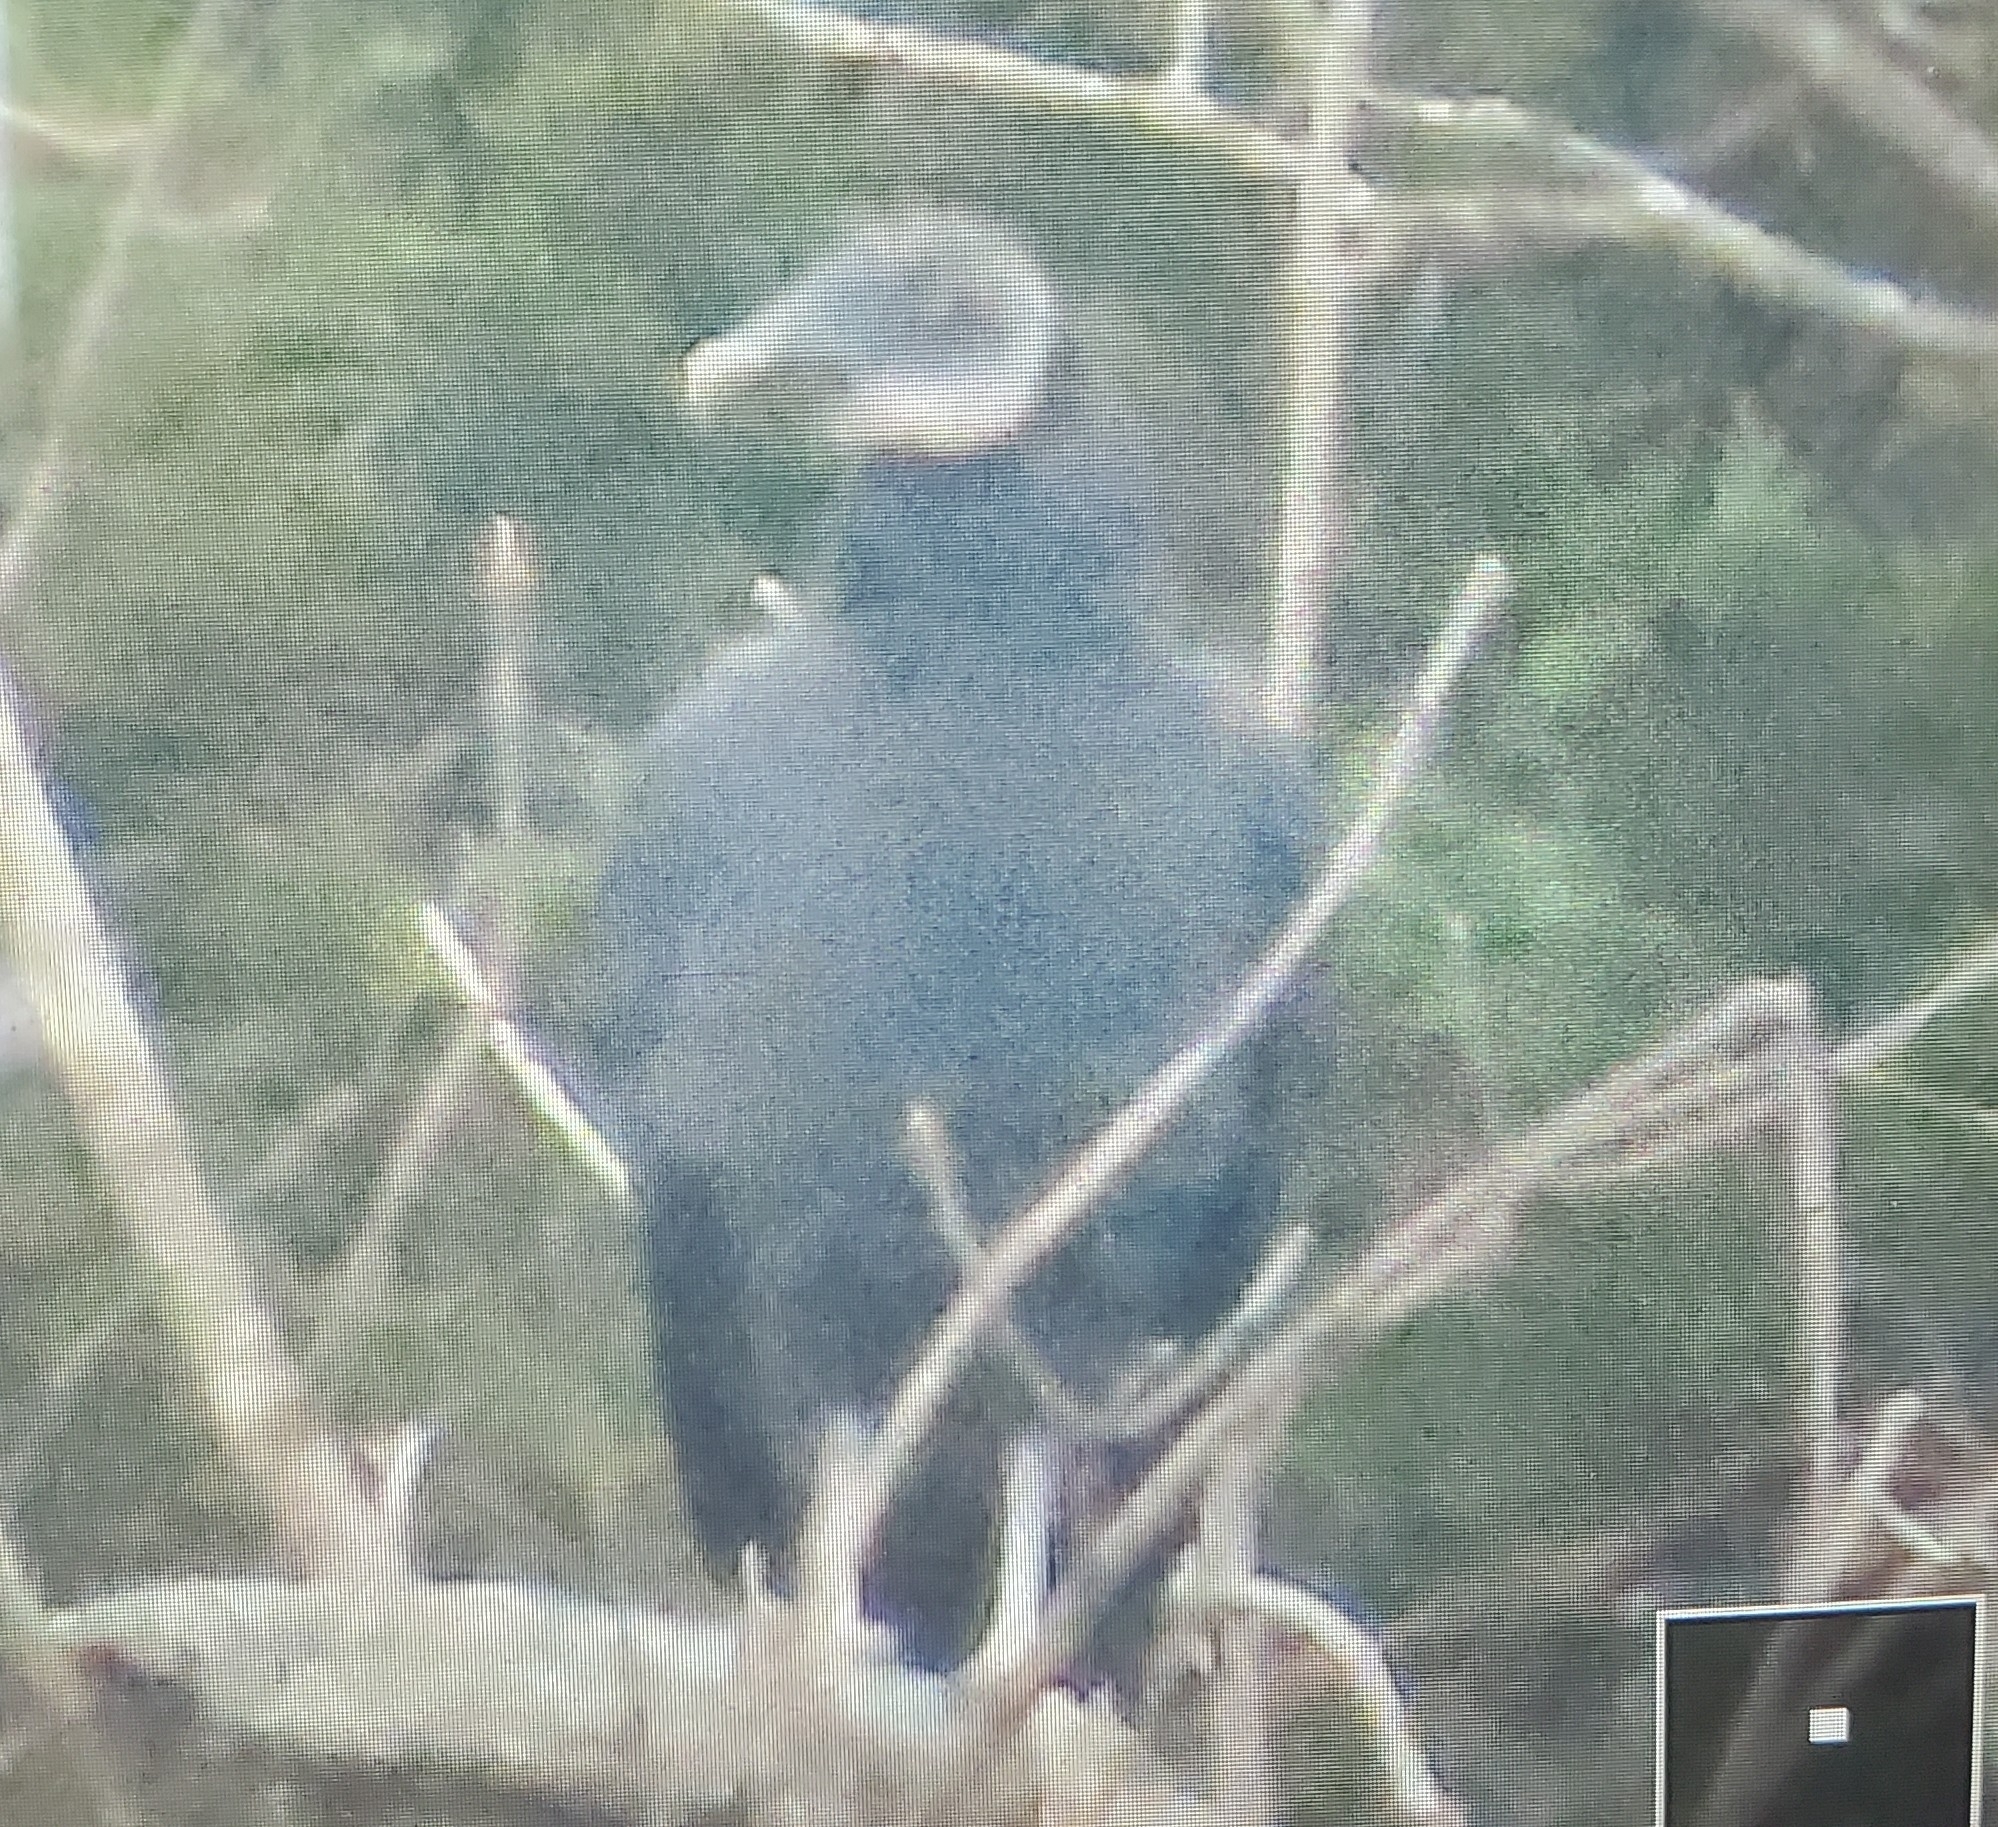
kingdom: Animalia
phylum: Chordata
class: Aves
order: Accipitriformes
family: Cathartidae
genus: Coragyps
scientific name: Coragyps atratus
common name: Black vulture
